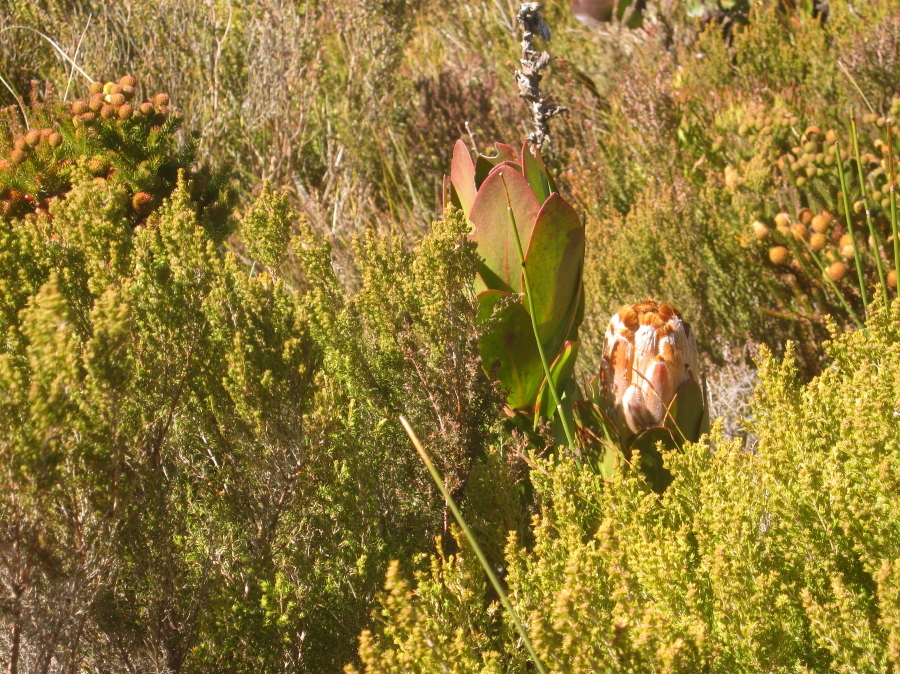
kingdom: Plantae
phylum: Tracheophyta
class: Magnoliopsida
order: Proteales
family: Proteaceae
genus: Protea
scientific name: Protea speciosa
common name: Brown-beard sugarbush
